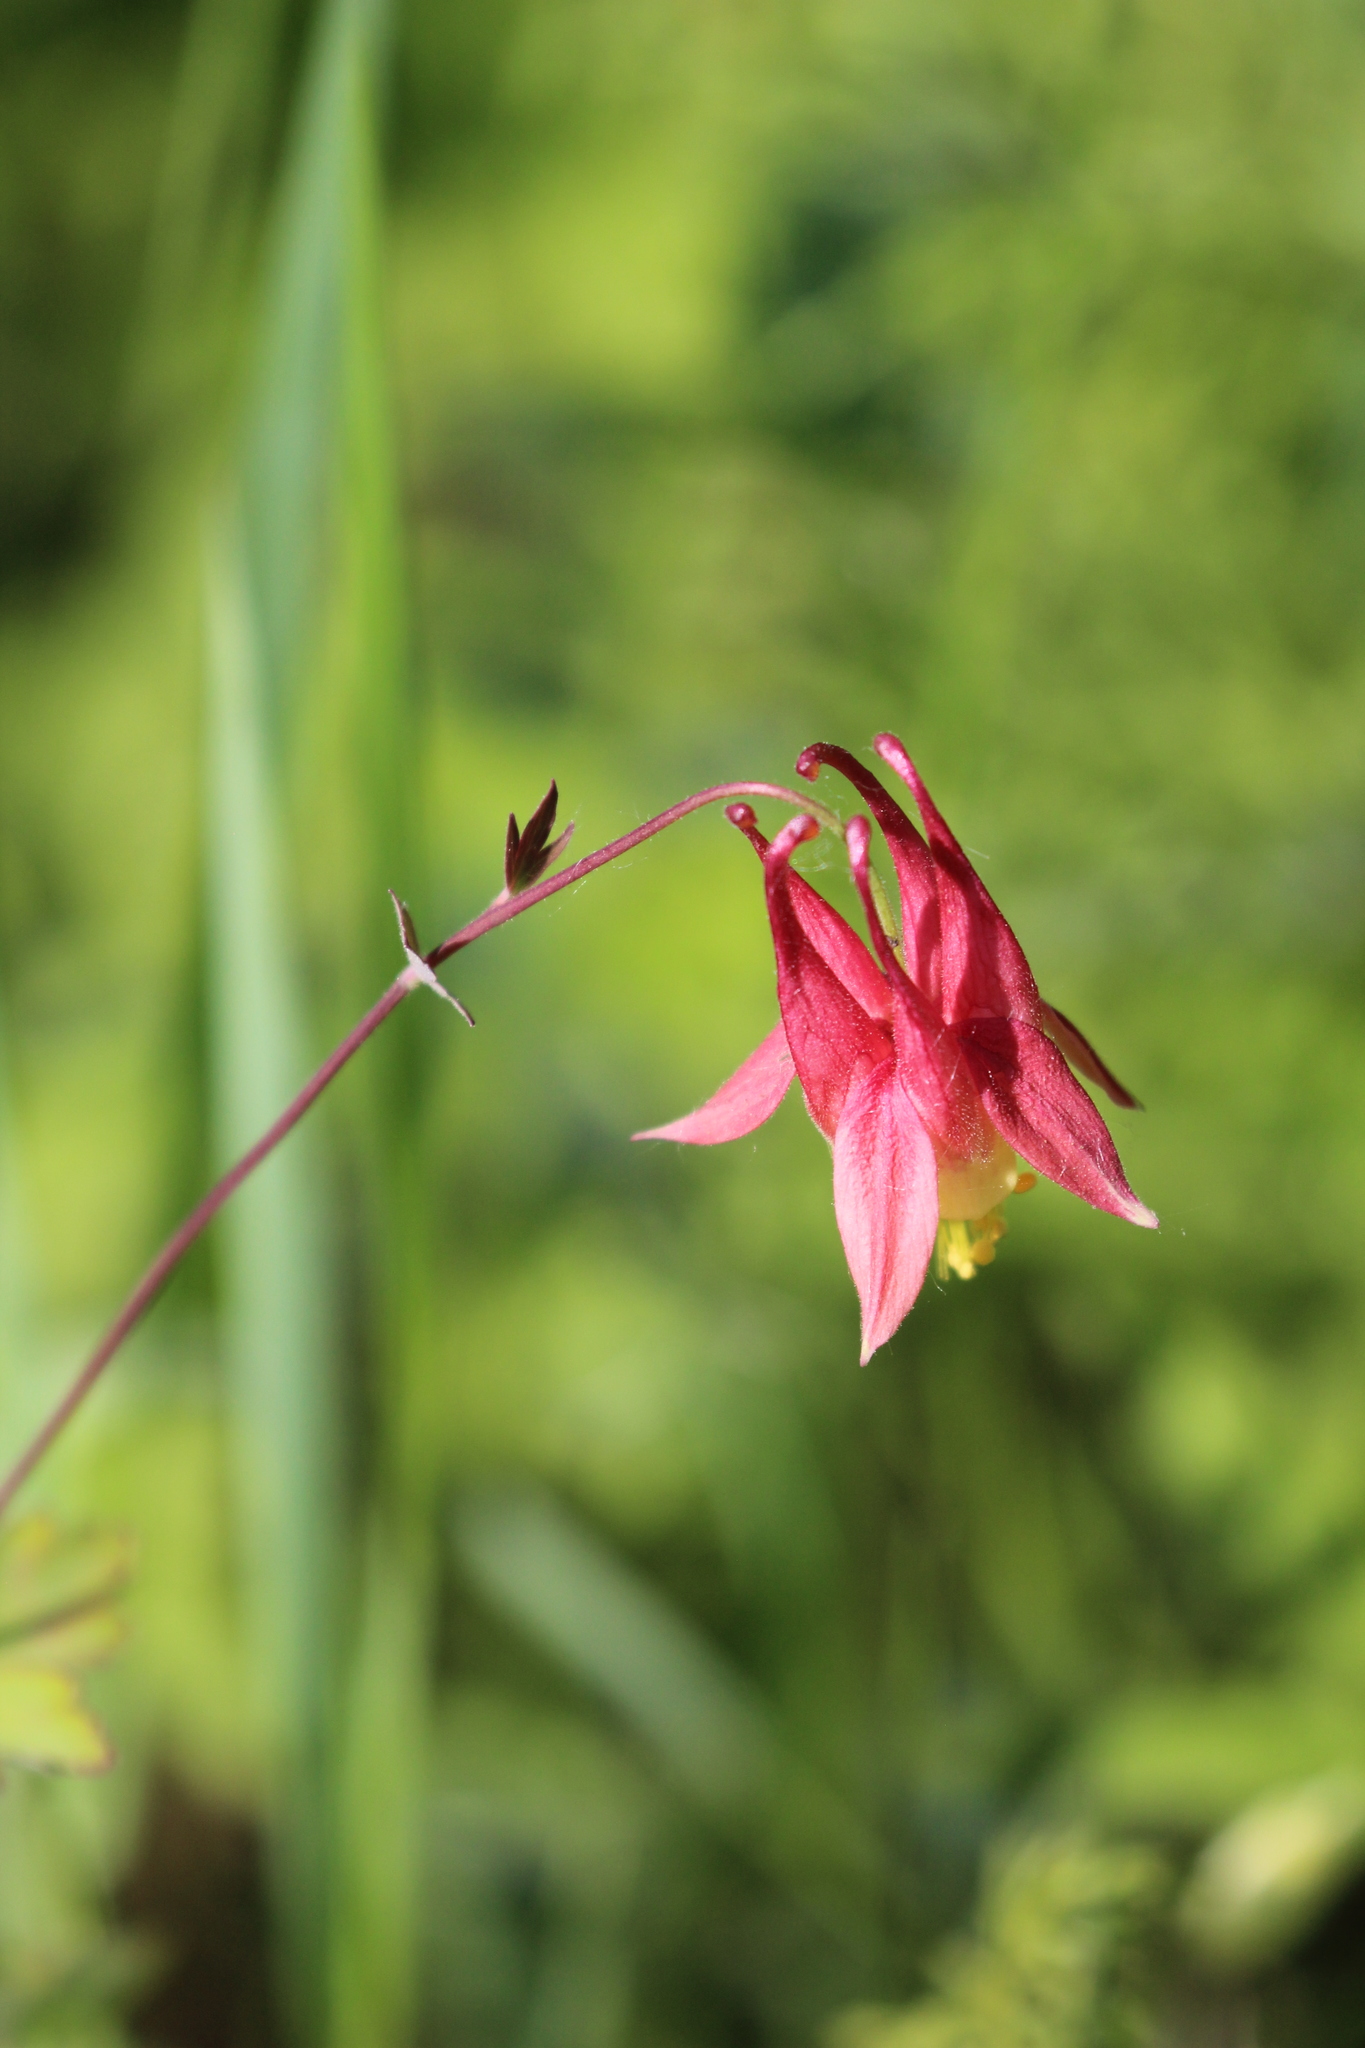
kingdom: Plantae
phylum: Tracheophyta
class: Magnoliopsida
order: Ranunculales
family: Ranunculaceae
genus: Aquilegia
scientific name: Aquilegia canadensis
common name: American columbine
